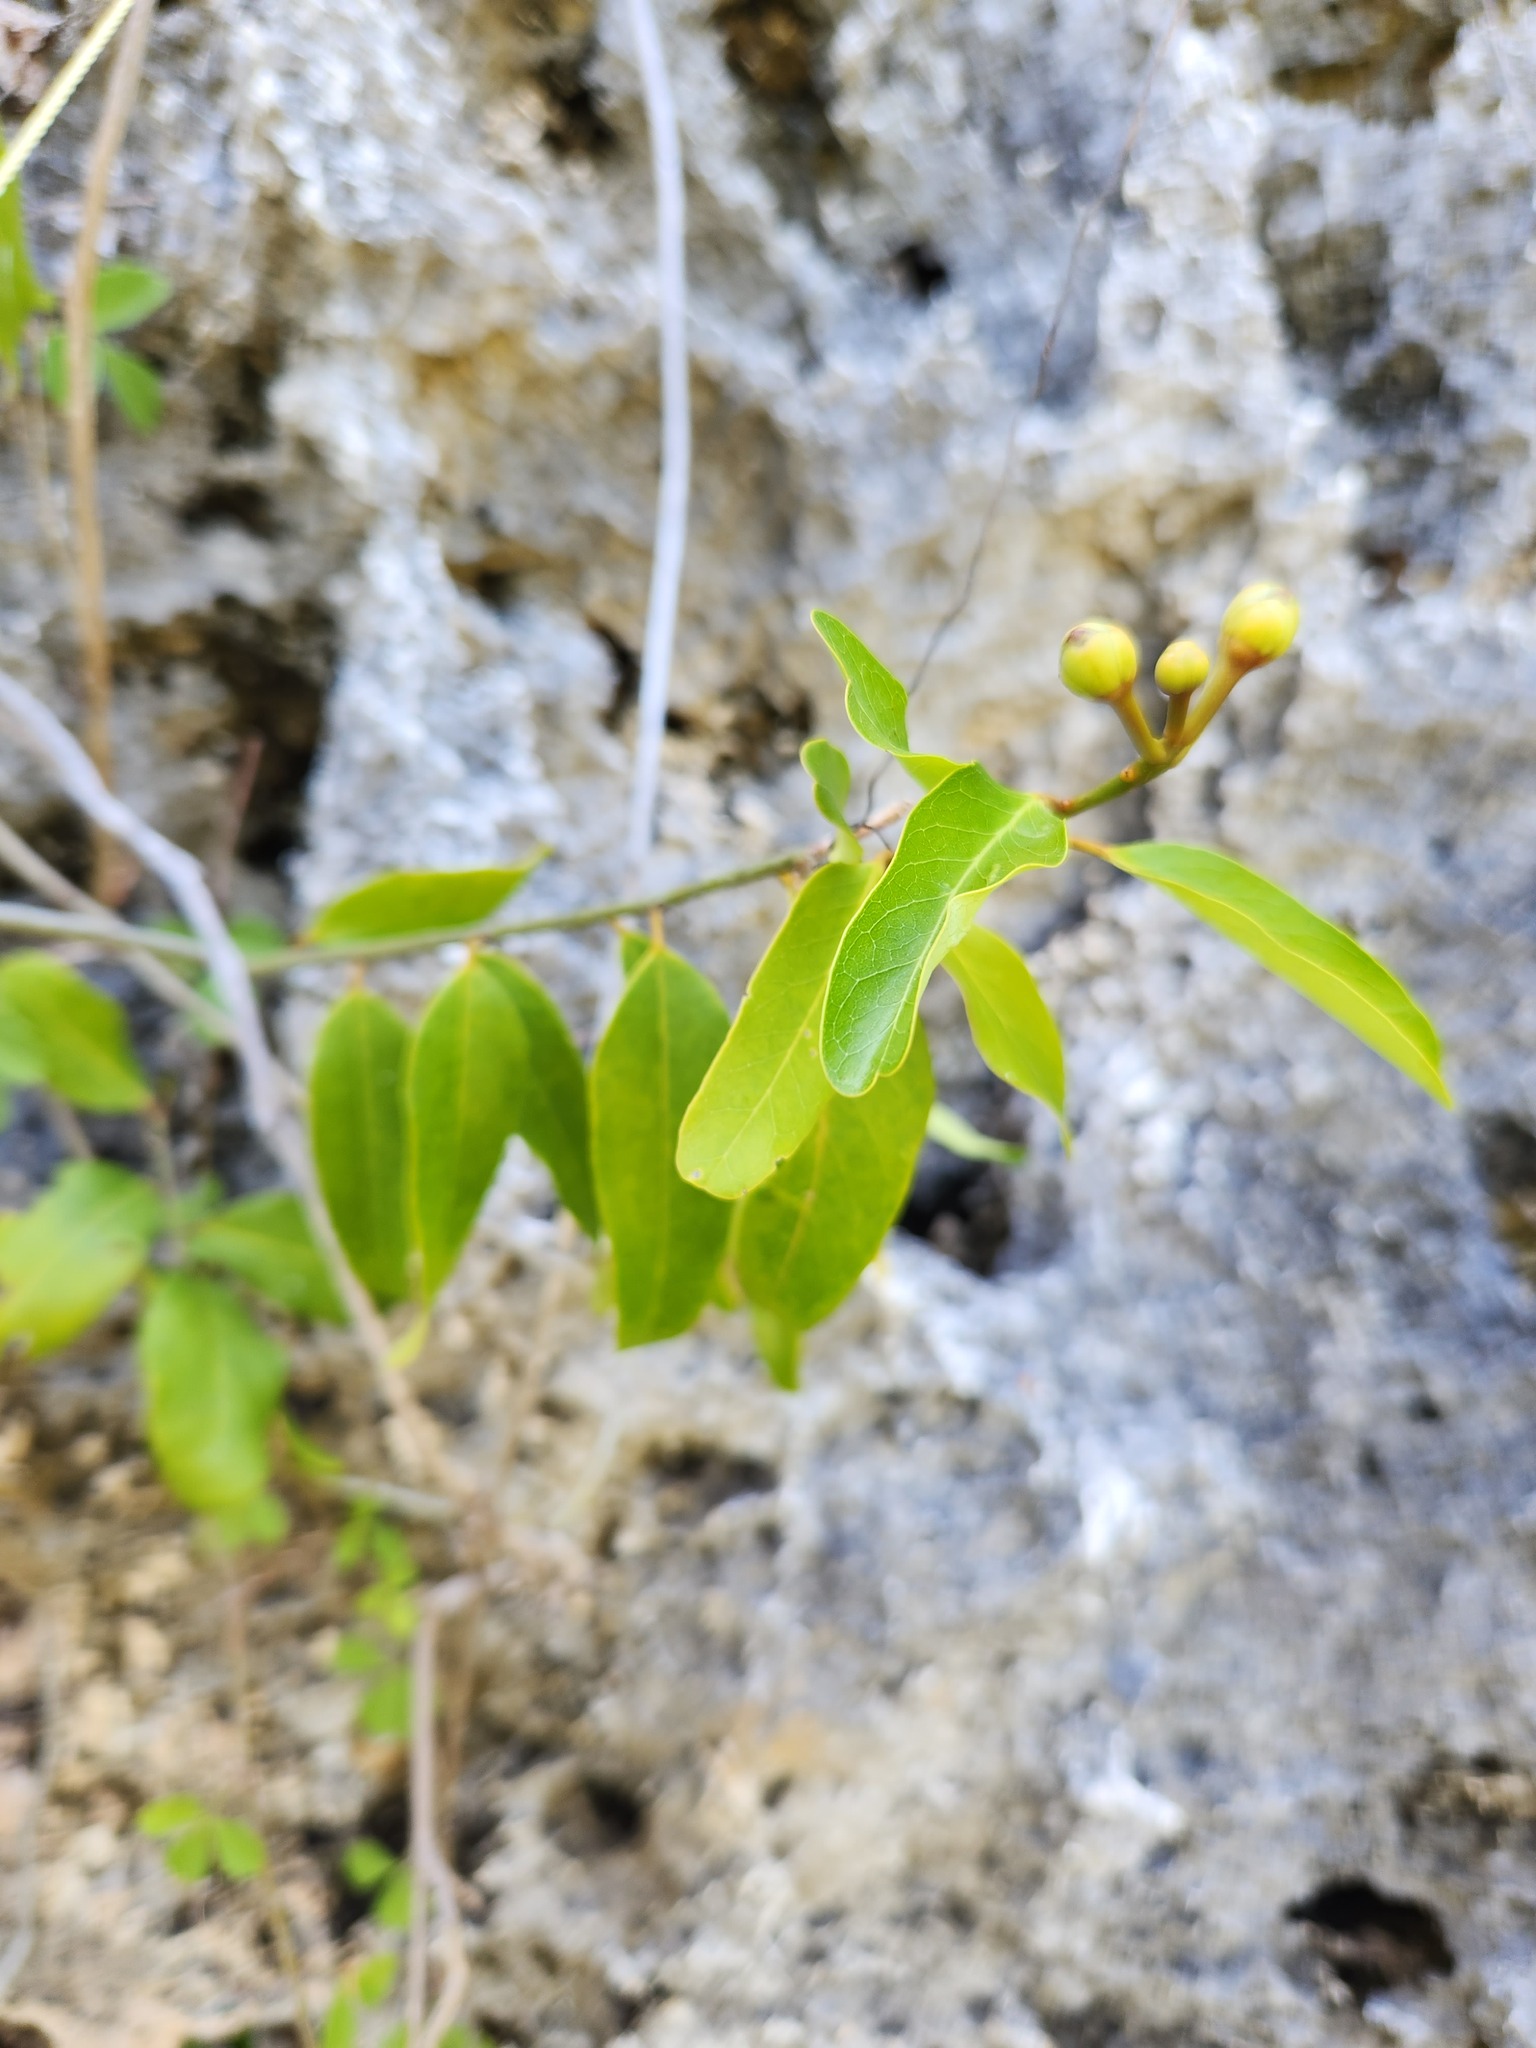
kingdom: Plantae
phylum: Tracheophyta
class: Magnoliopsida
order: Brassicales
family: Capparaceae
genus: Cynophalla
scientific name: Cynophalla flexuosa
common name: Capertree
